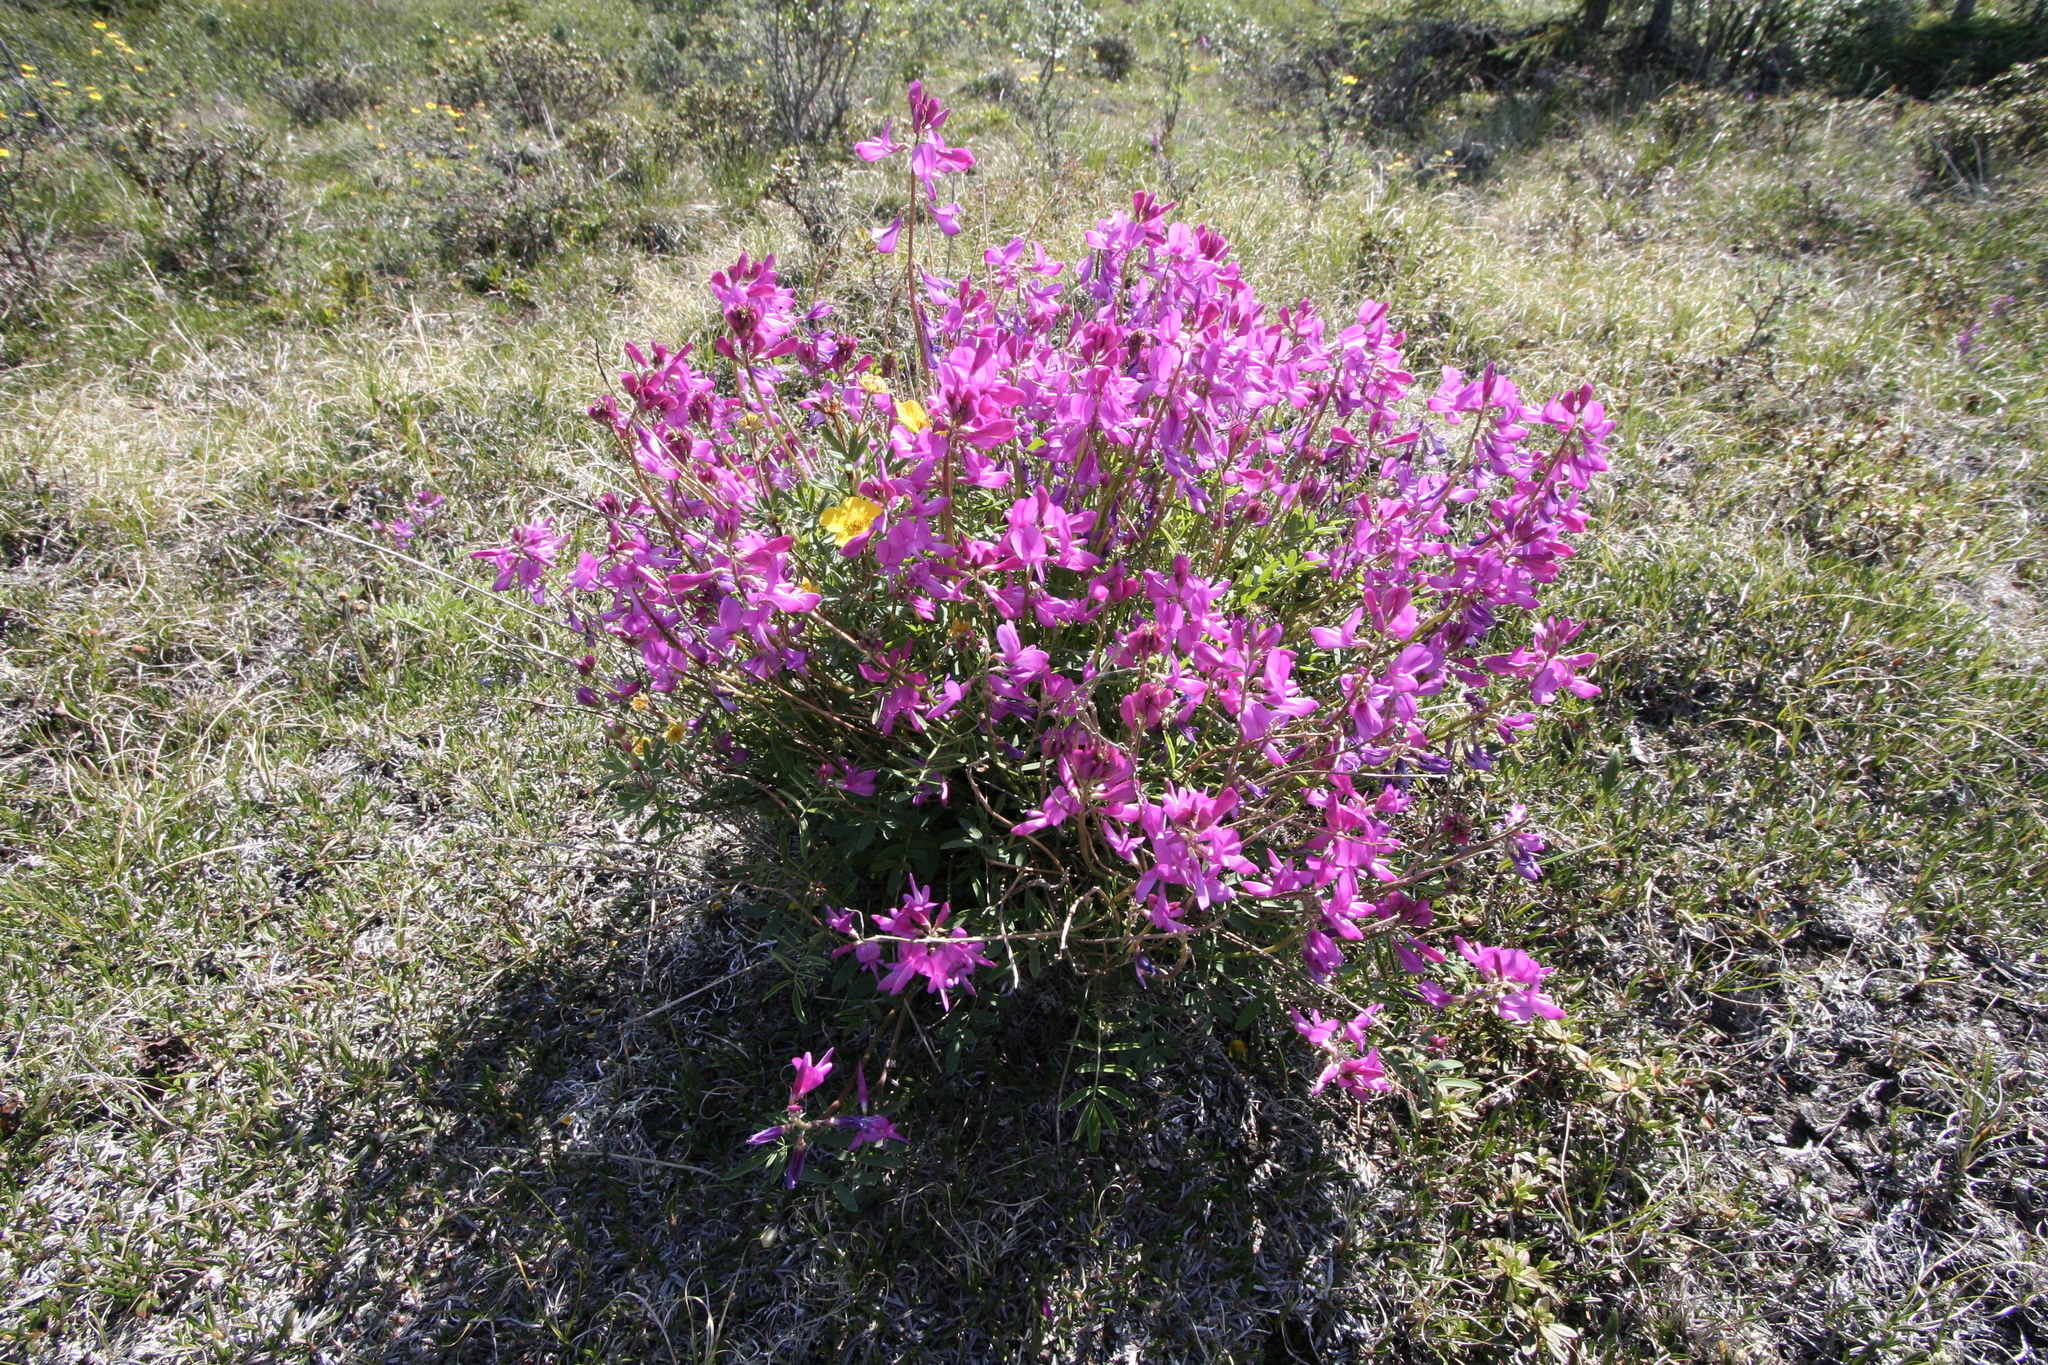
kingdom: Plantae
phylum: Tracheophyta
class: Magnoliopsida
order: Fabales
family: Fabaceae
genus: Hedysarum
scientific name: Hedysarum boreale
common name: Northern sweet-vetch
